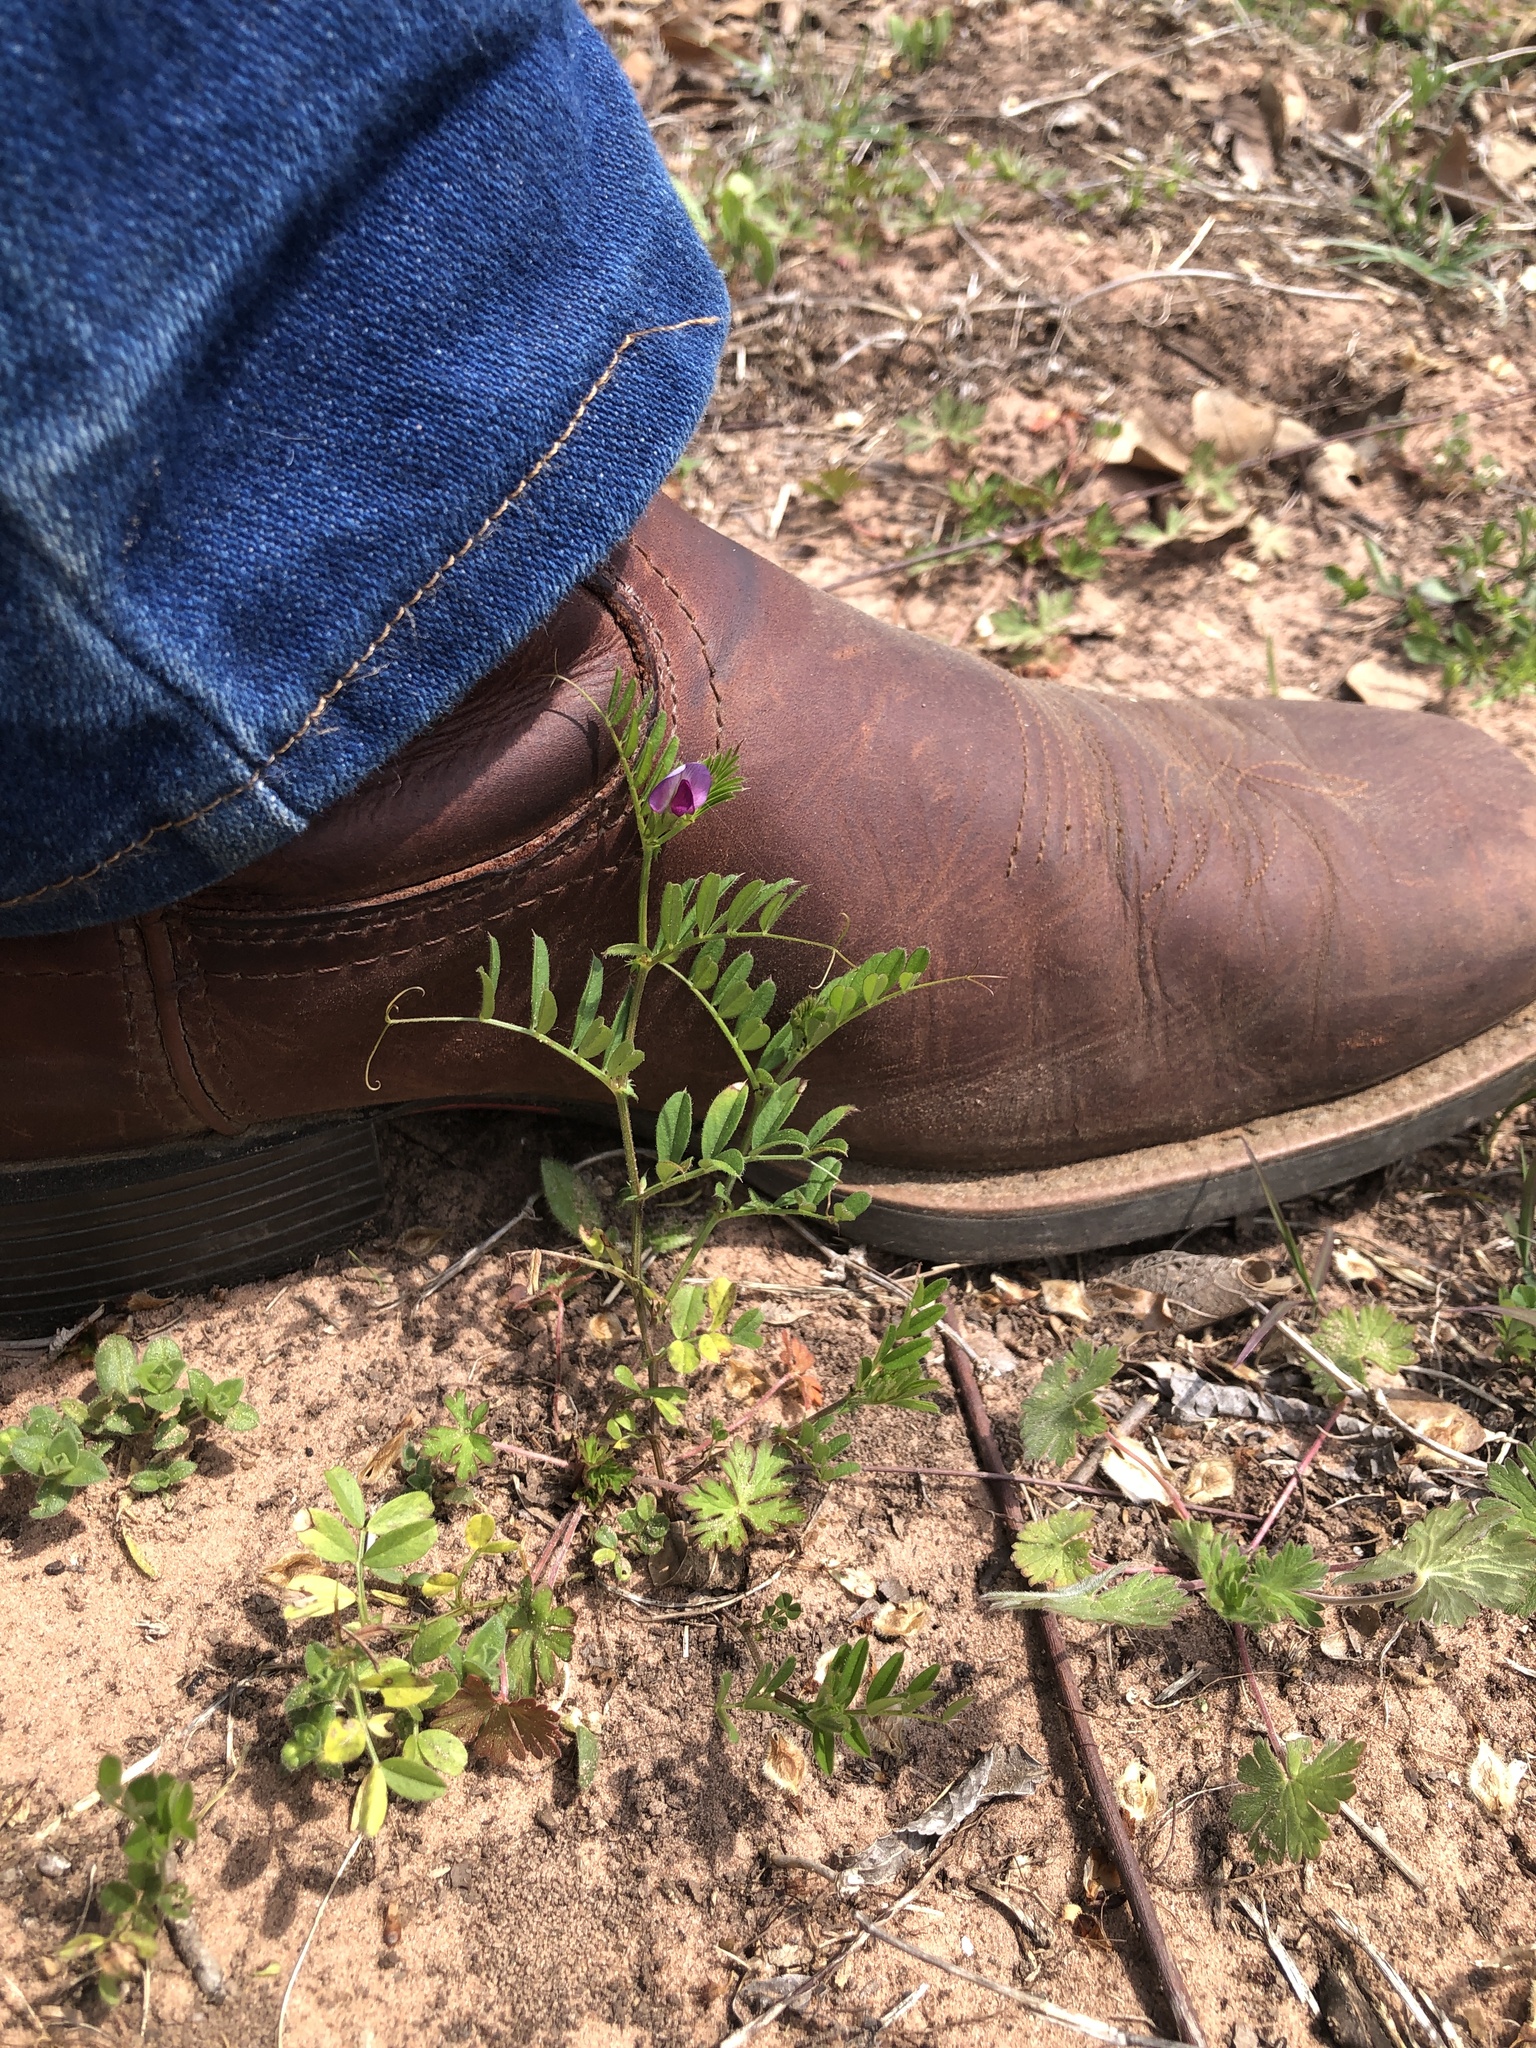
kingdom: Plantae
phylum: Tracheophyta
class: Magnoliopsida
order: Fabales
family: Fabaceae
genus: Vicia
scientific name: Vicia sativa
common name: Garden vetch
